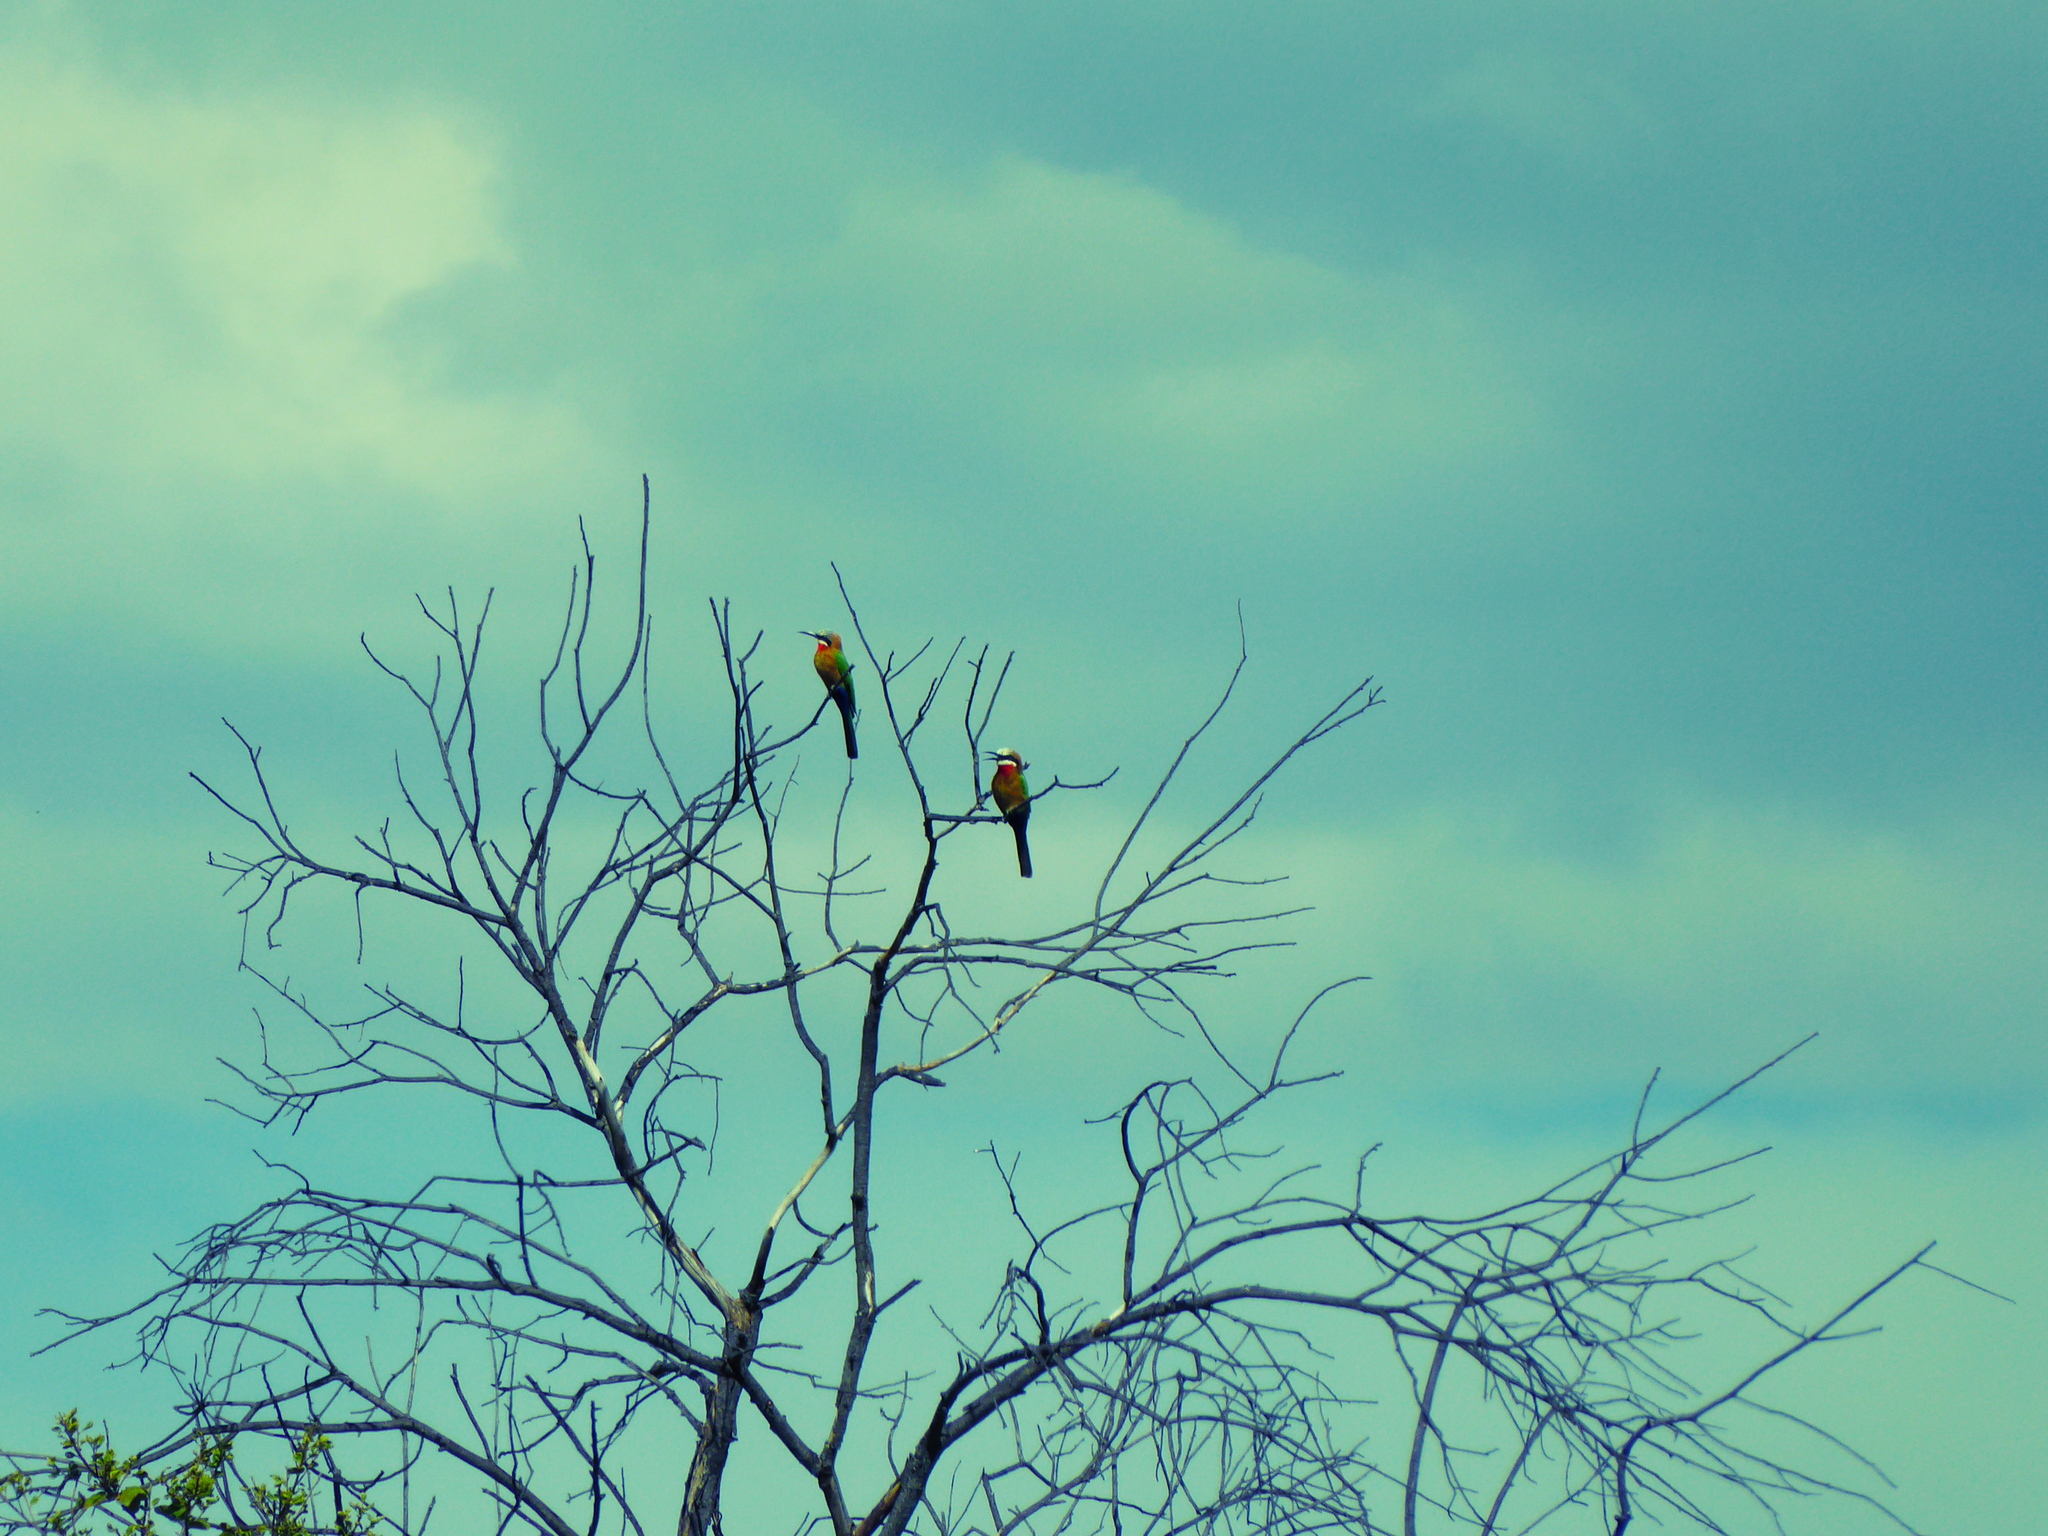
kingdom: Animalia
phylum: Chordata
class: Aves
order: Coraciiformes
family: Meropidae
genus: Merops
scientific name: Merops bullockoides
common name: White-fronted bee-eater
